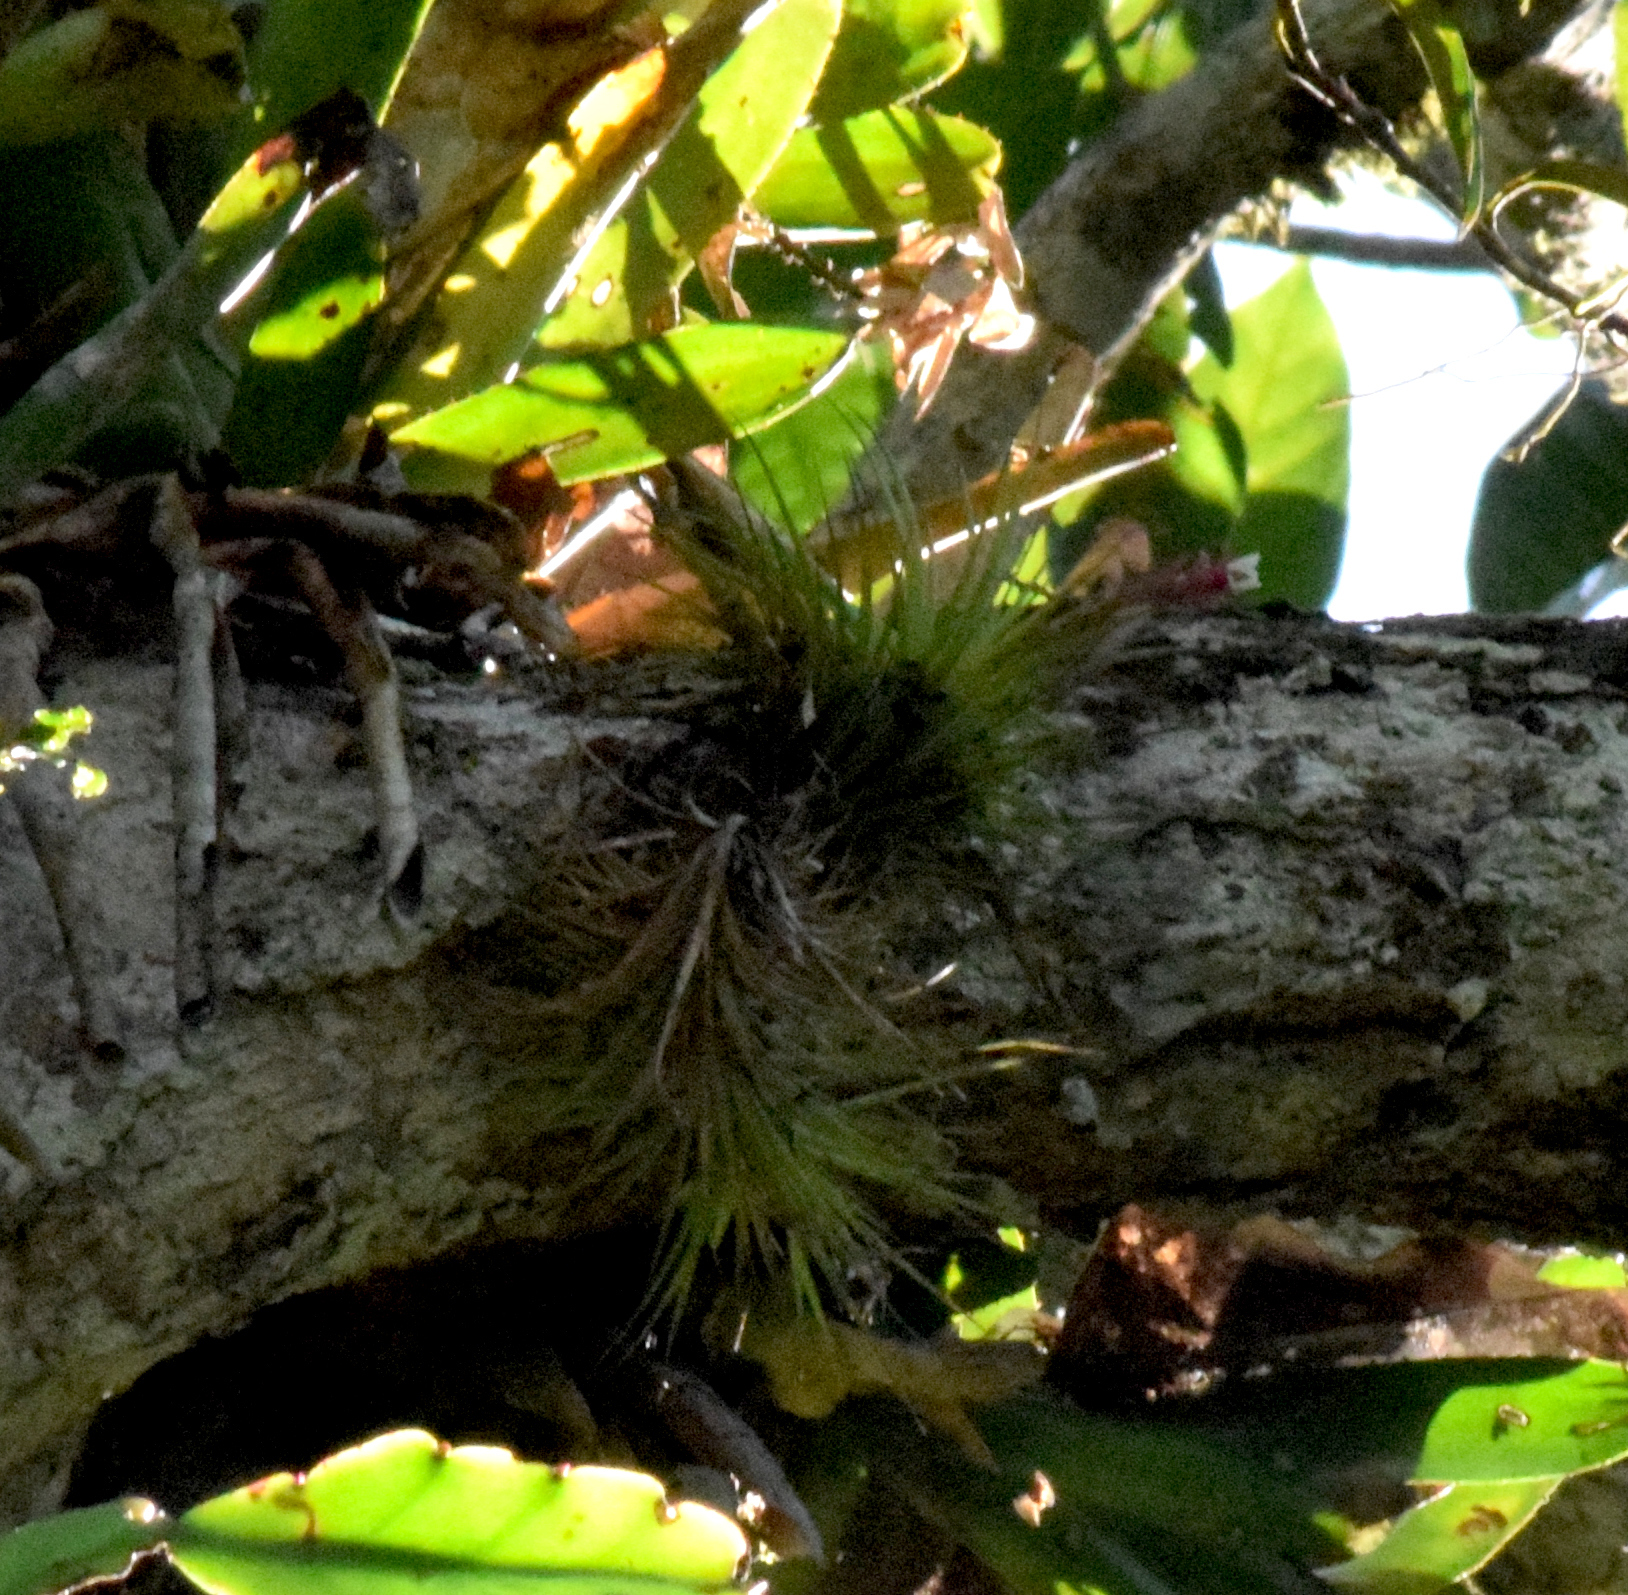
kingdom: Plantae
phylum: Tracheophyta
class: Liliopsida
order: Poales
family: Bromeliaceae
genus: Tillandsia
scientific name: Tillandsia tenuifolia
